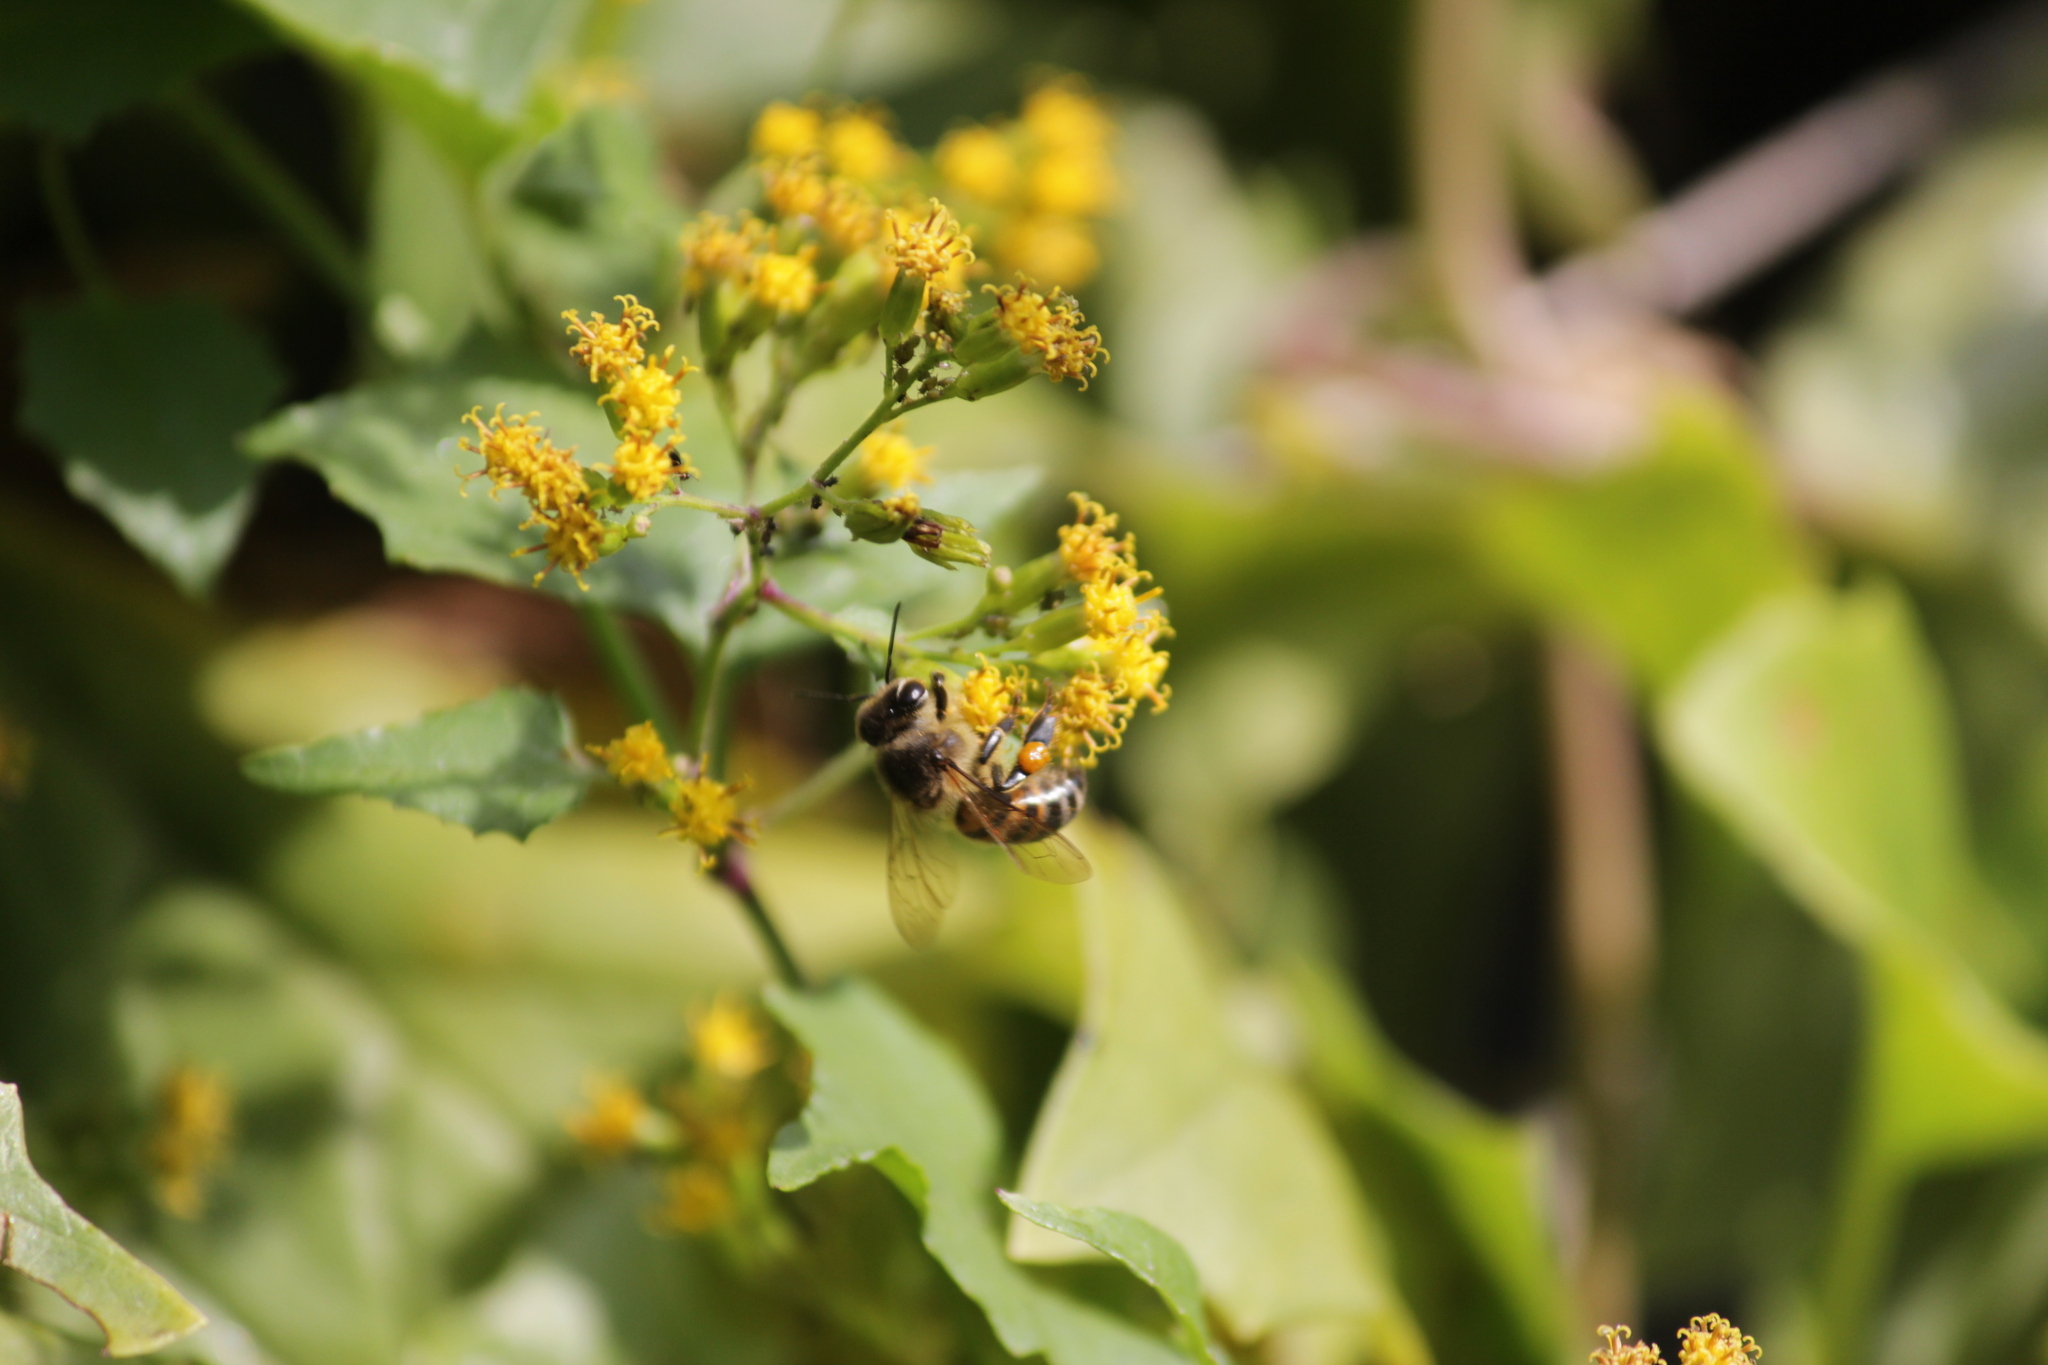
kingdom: Animalia
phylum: Arthropoda
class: Insecta
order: Hymenoptera
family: Apidae
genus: Apis
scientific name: Apis mellifera
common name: Honey bee
